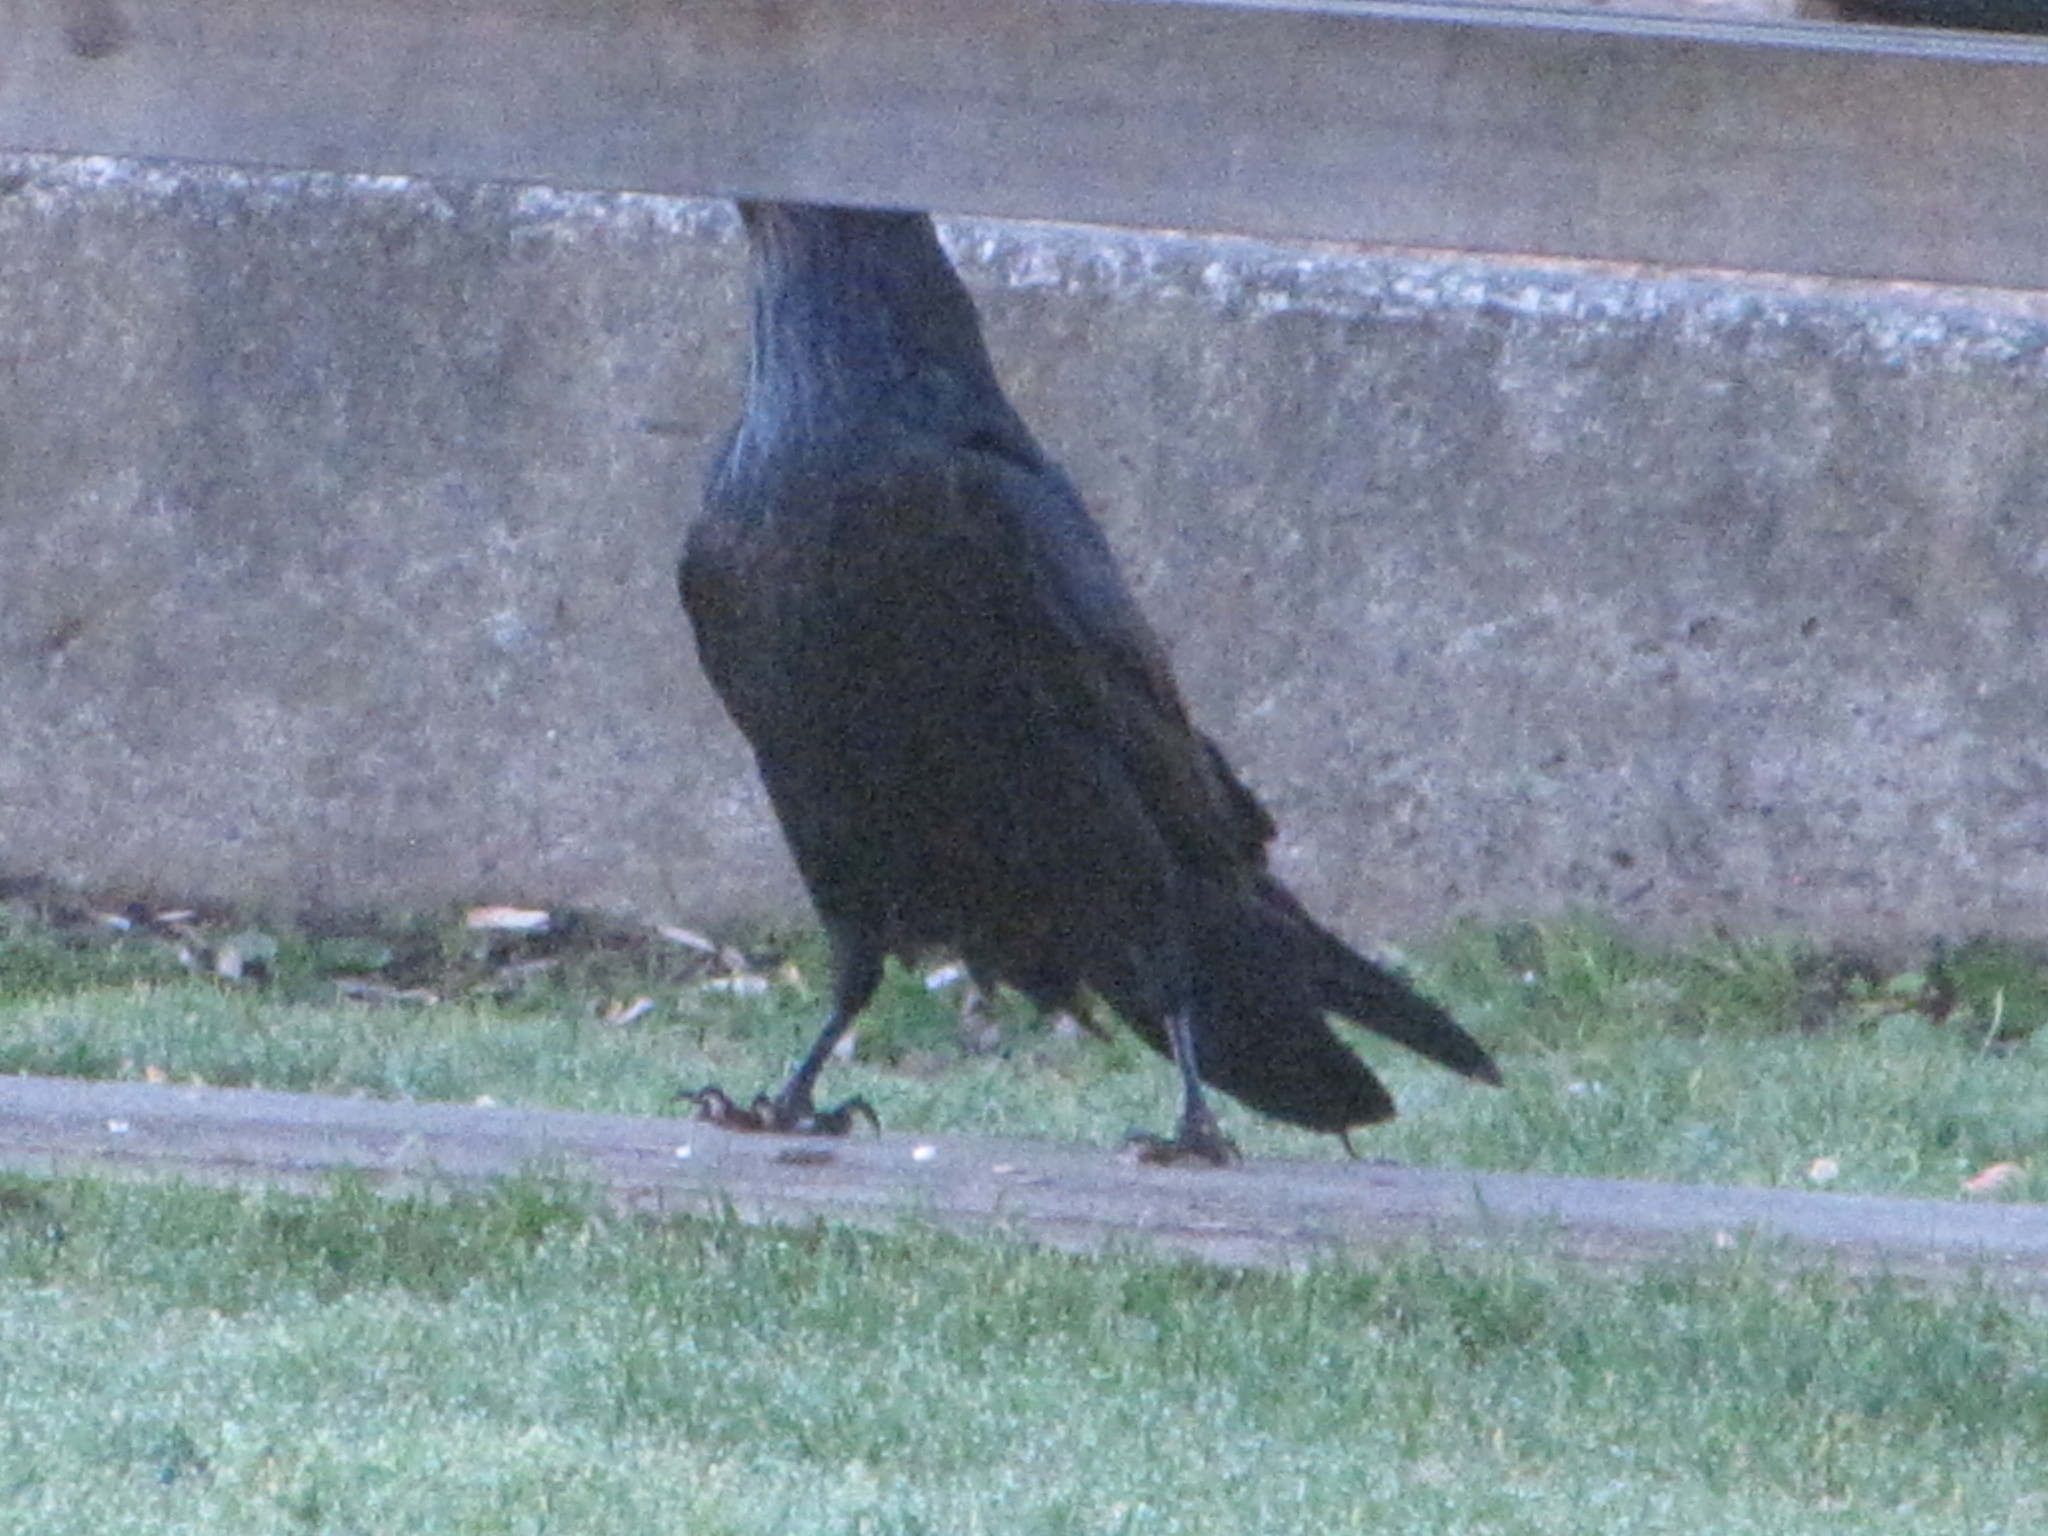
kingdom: Animalia
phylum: Chordata
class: Aves
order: Passeriformes
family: Corvidae
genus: Corvus
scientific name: Corvus corax
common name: Common raven
